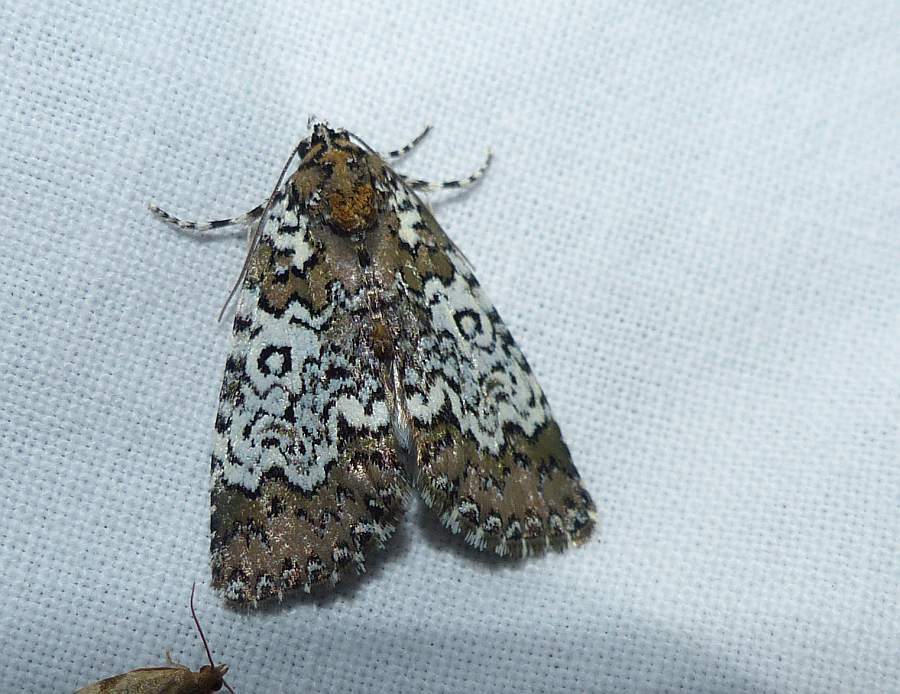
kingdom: Animalia
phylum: Arthropoda
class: Insecta
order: Lepidoptera
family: Noctuidae
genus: Cerma
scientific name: Cerma cora
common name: Bird dropping moth
